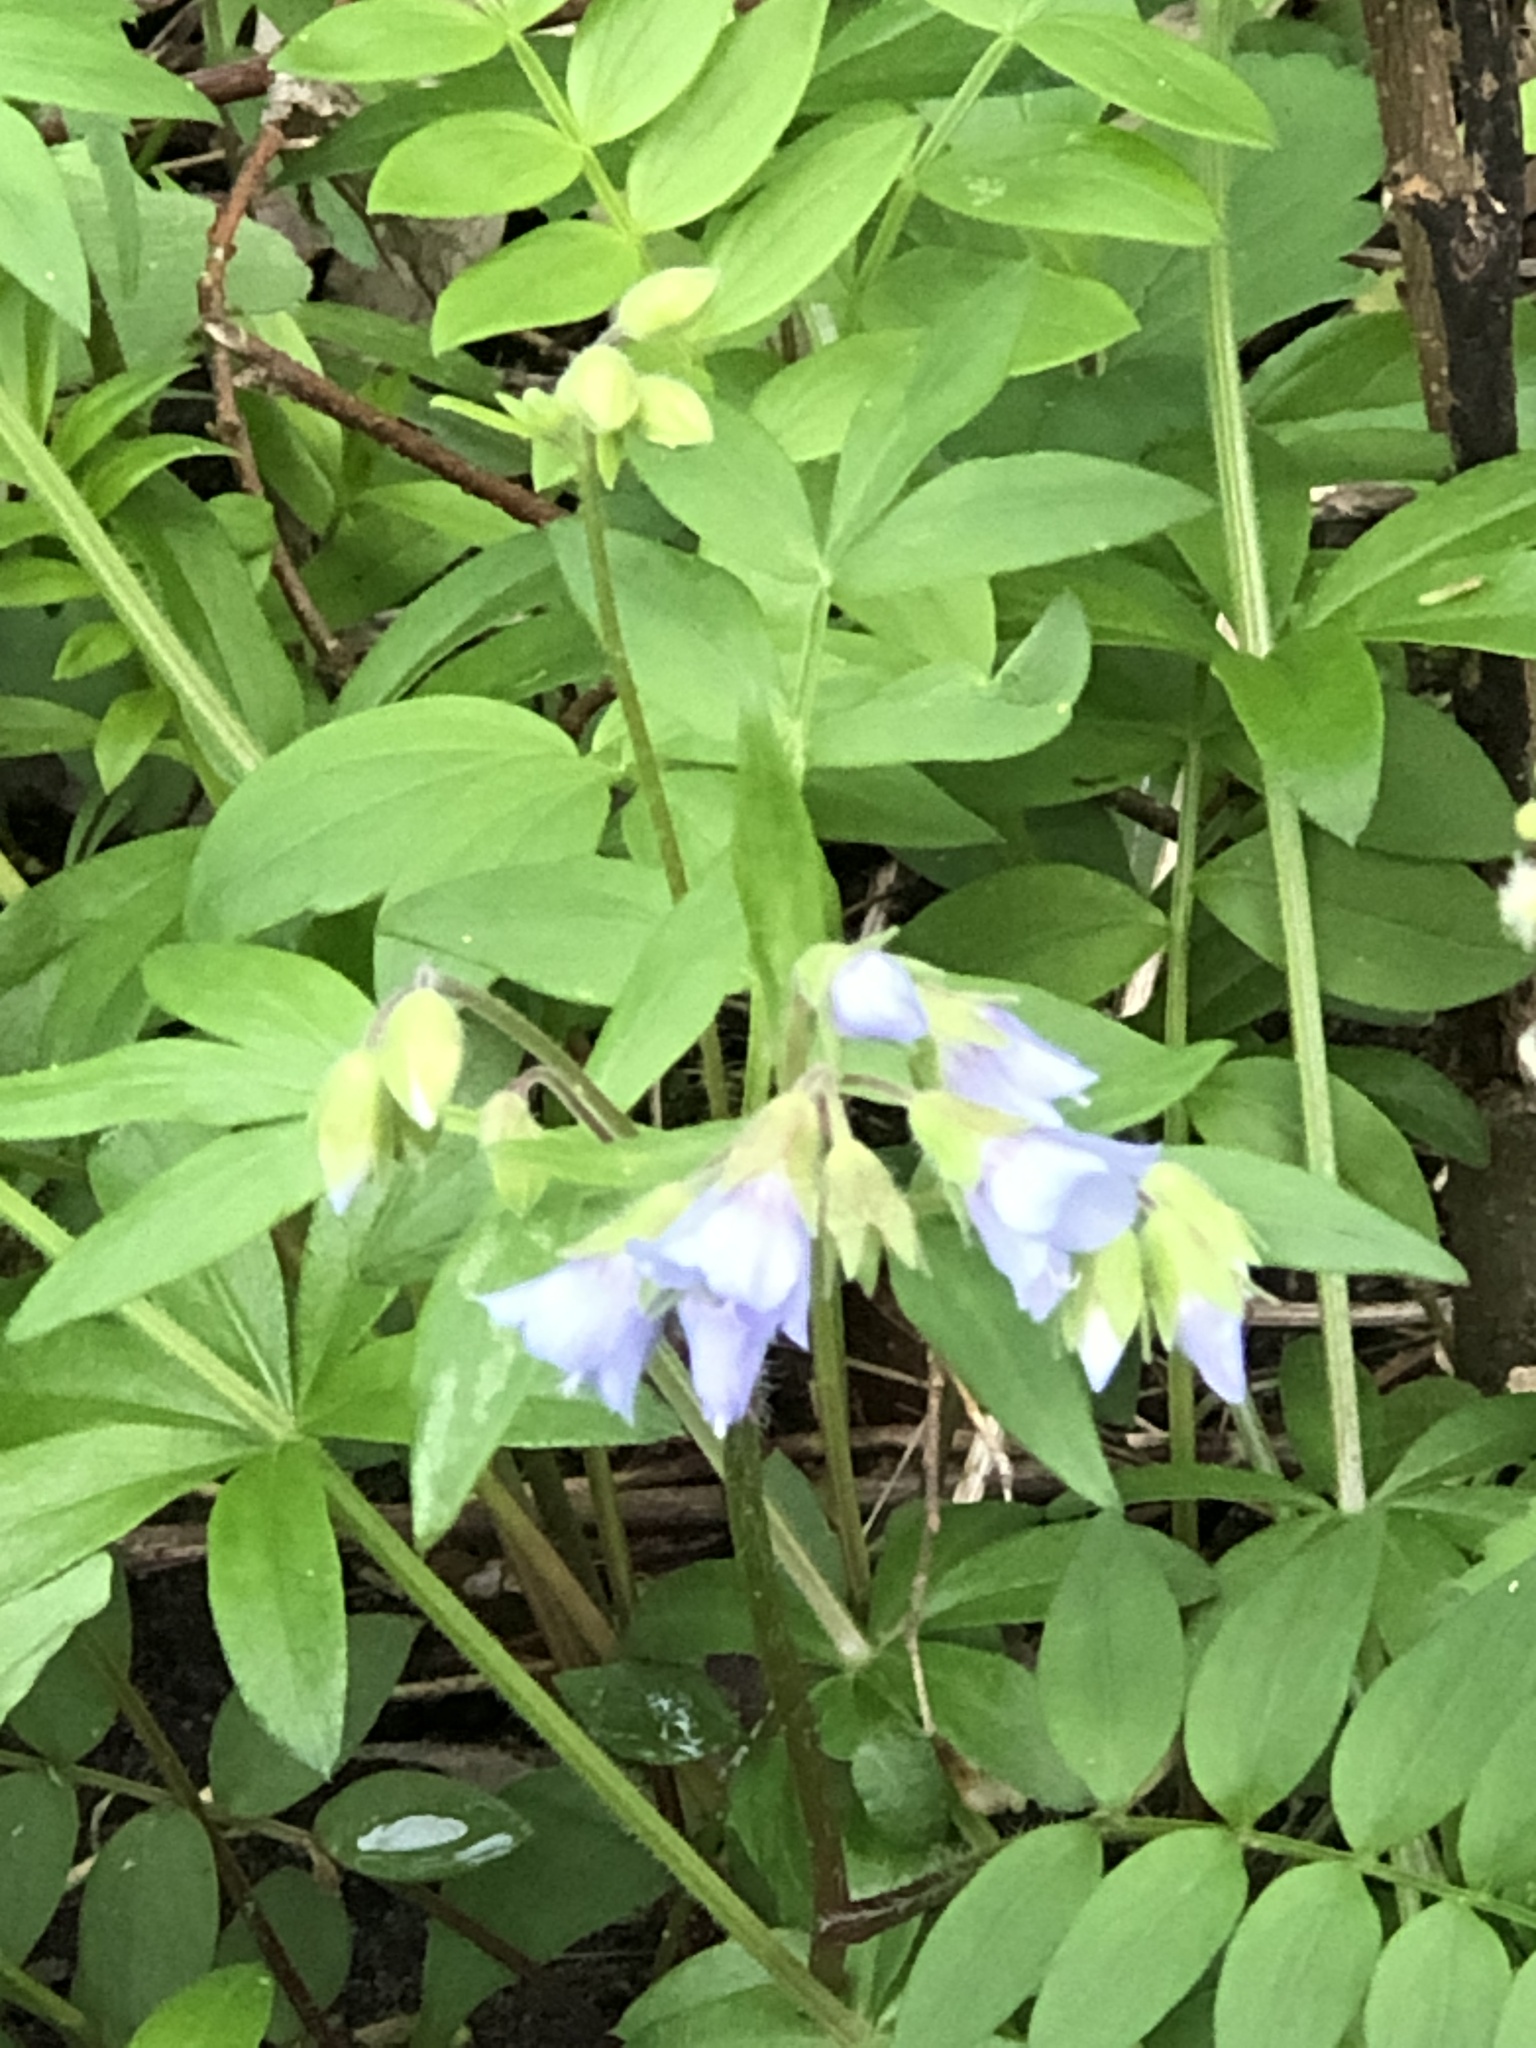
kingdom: Plantae
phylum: Tracheophyta
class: Magnoliopsida
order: Ericales
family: Polemoniaceae
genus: Polemonium
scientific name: Polemonium reptans
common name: Creeping jacob's-ladder
